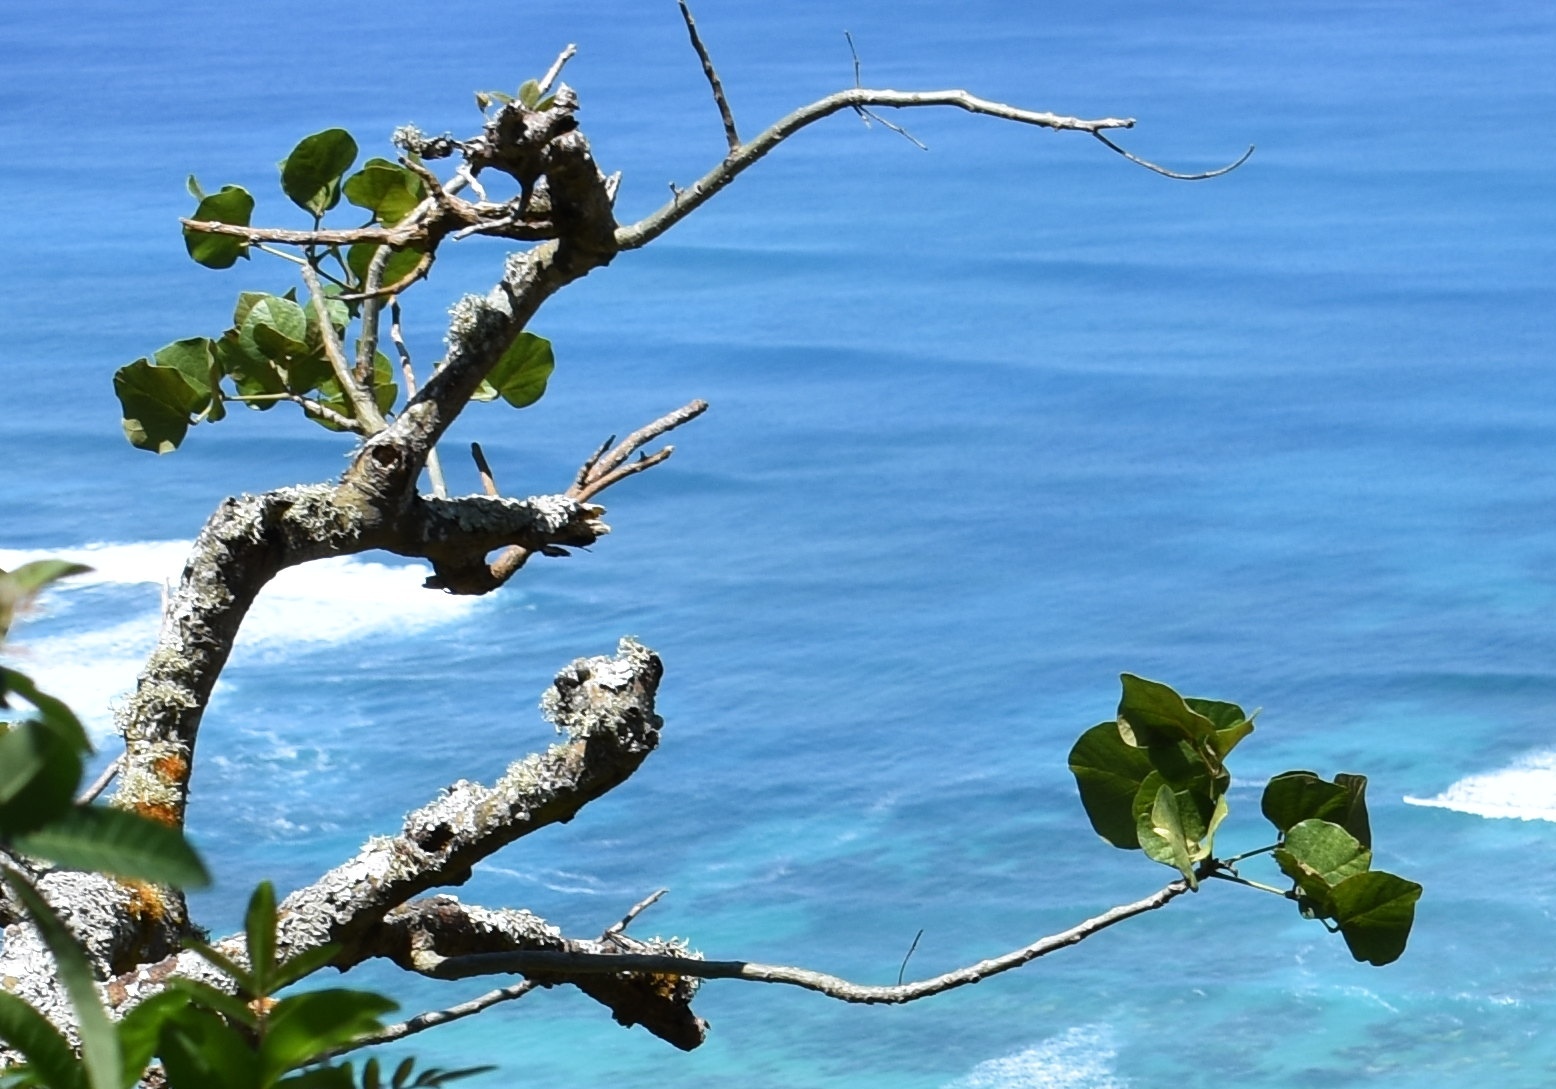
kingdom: Plantae
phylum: Tracheophyta
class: Magnoliopsida
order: Fabales
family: Fabaceae
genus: Erythrina
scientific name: Erythrina sandwicensis
